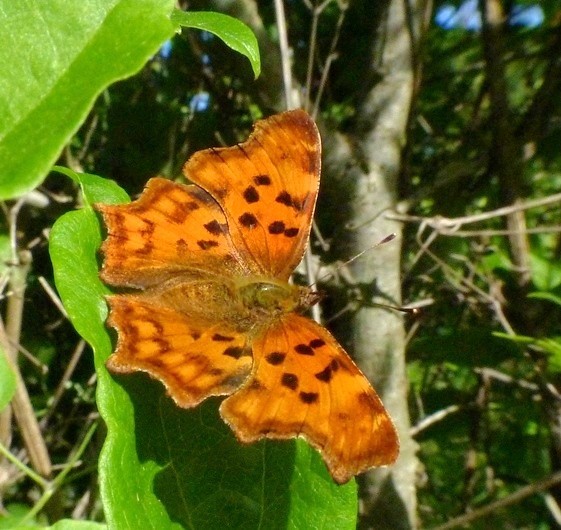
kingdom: Animalia
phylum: Arthropoda
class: Insecta
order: Lepidoptera
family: Nymphalidae
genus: Polygonia
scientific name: Polygonia c-album
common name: Comma
